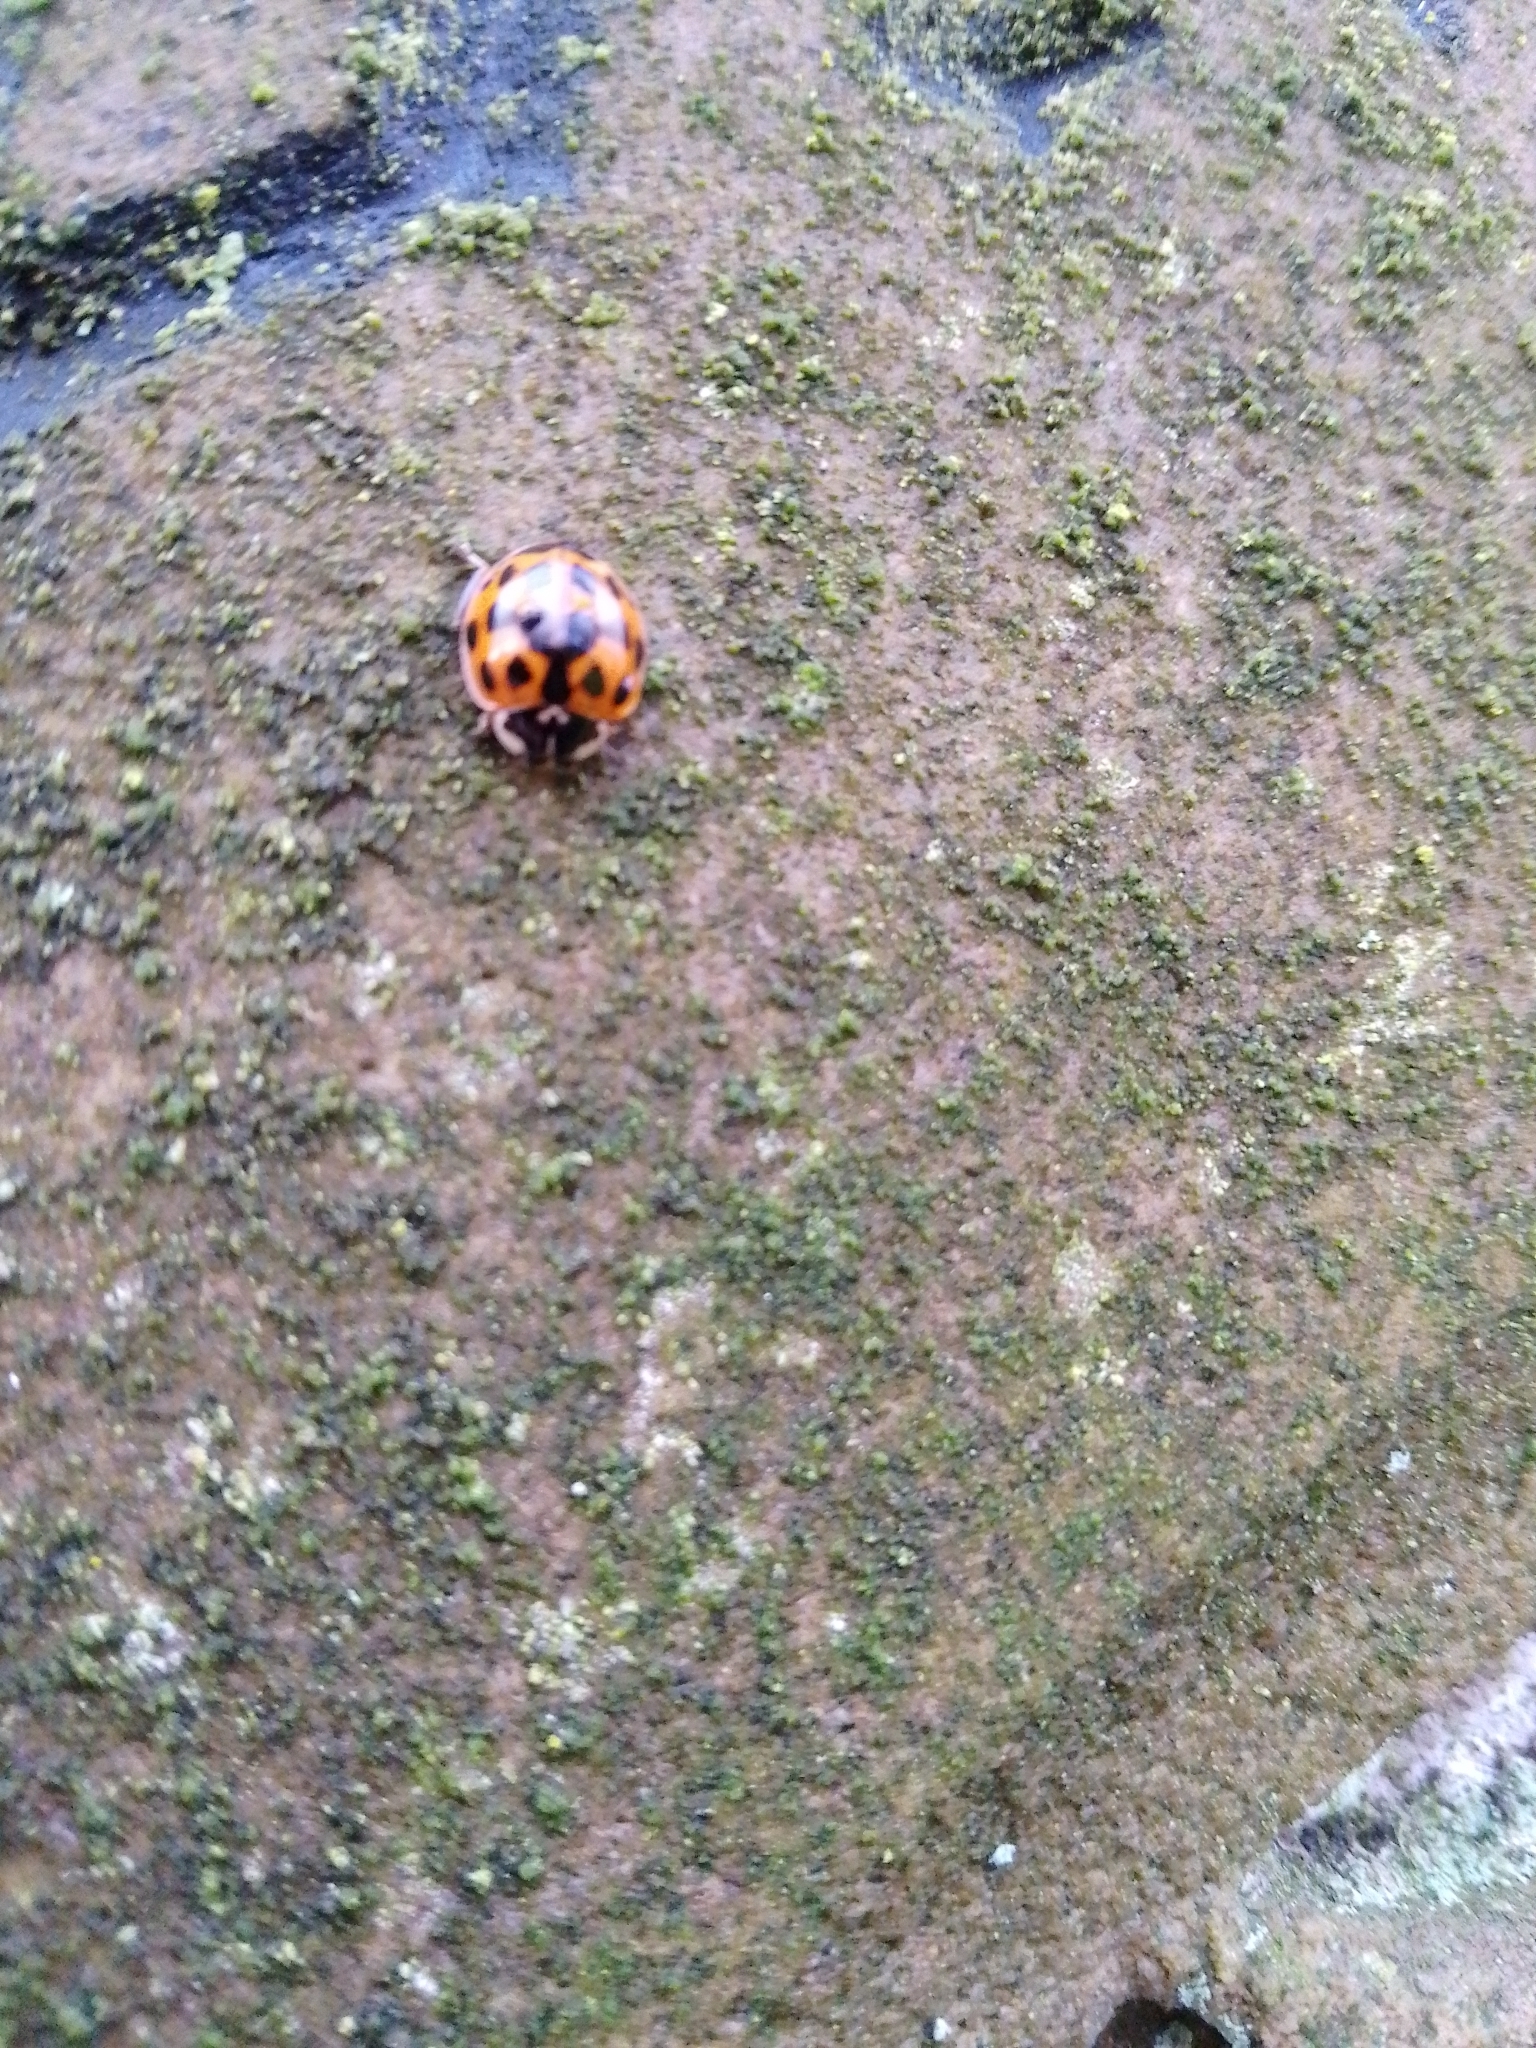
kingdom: Animalia
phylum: Arthropoda
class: Insecta
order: Coleoptera
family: Coccinellidae
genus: Harmonia
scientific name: Harmonia axyridis
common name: Harlequin ladybird
